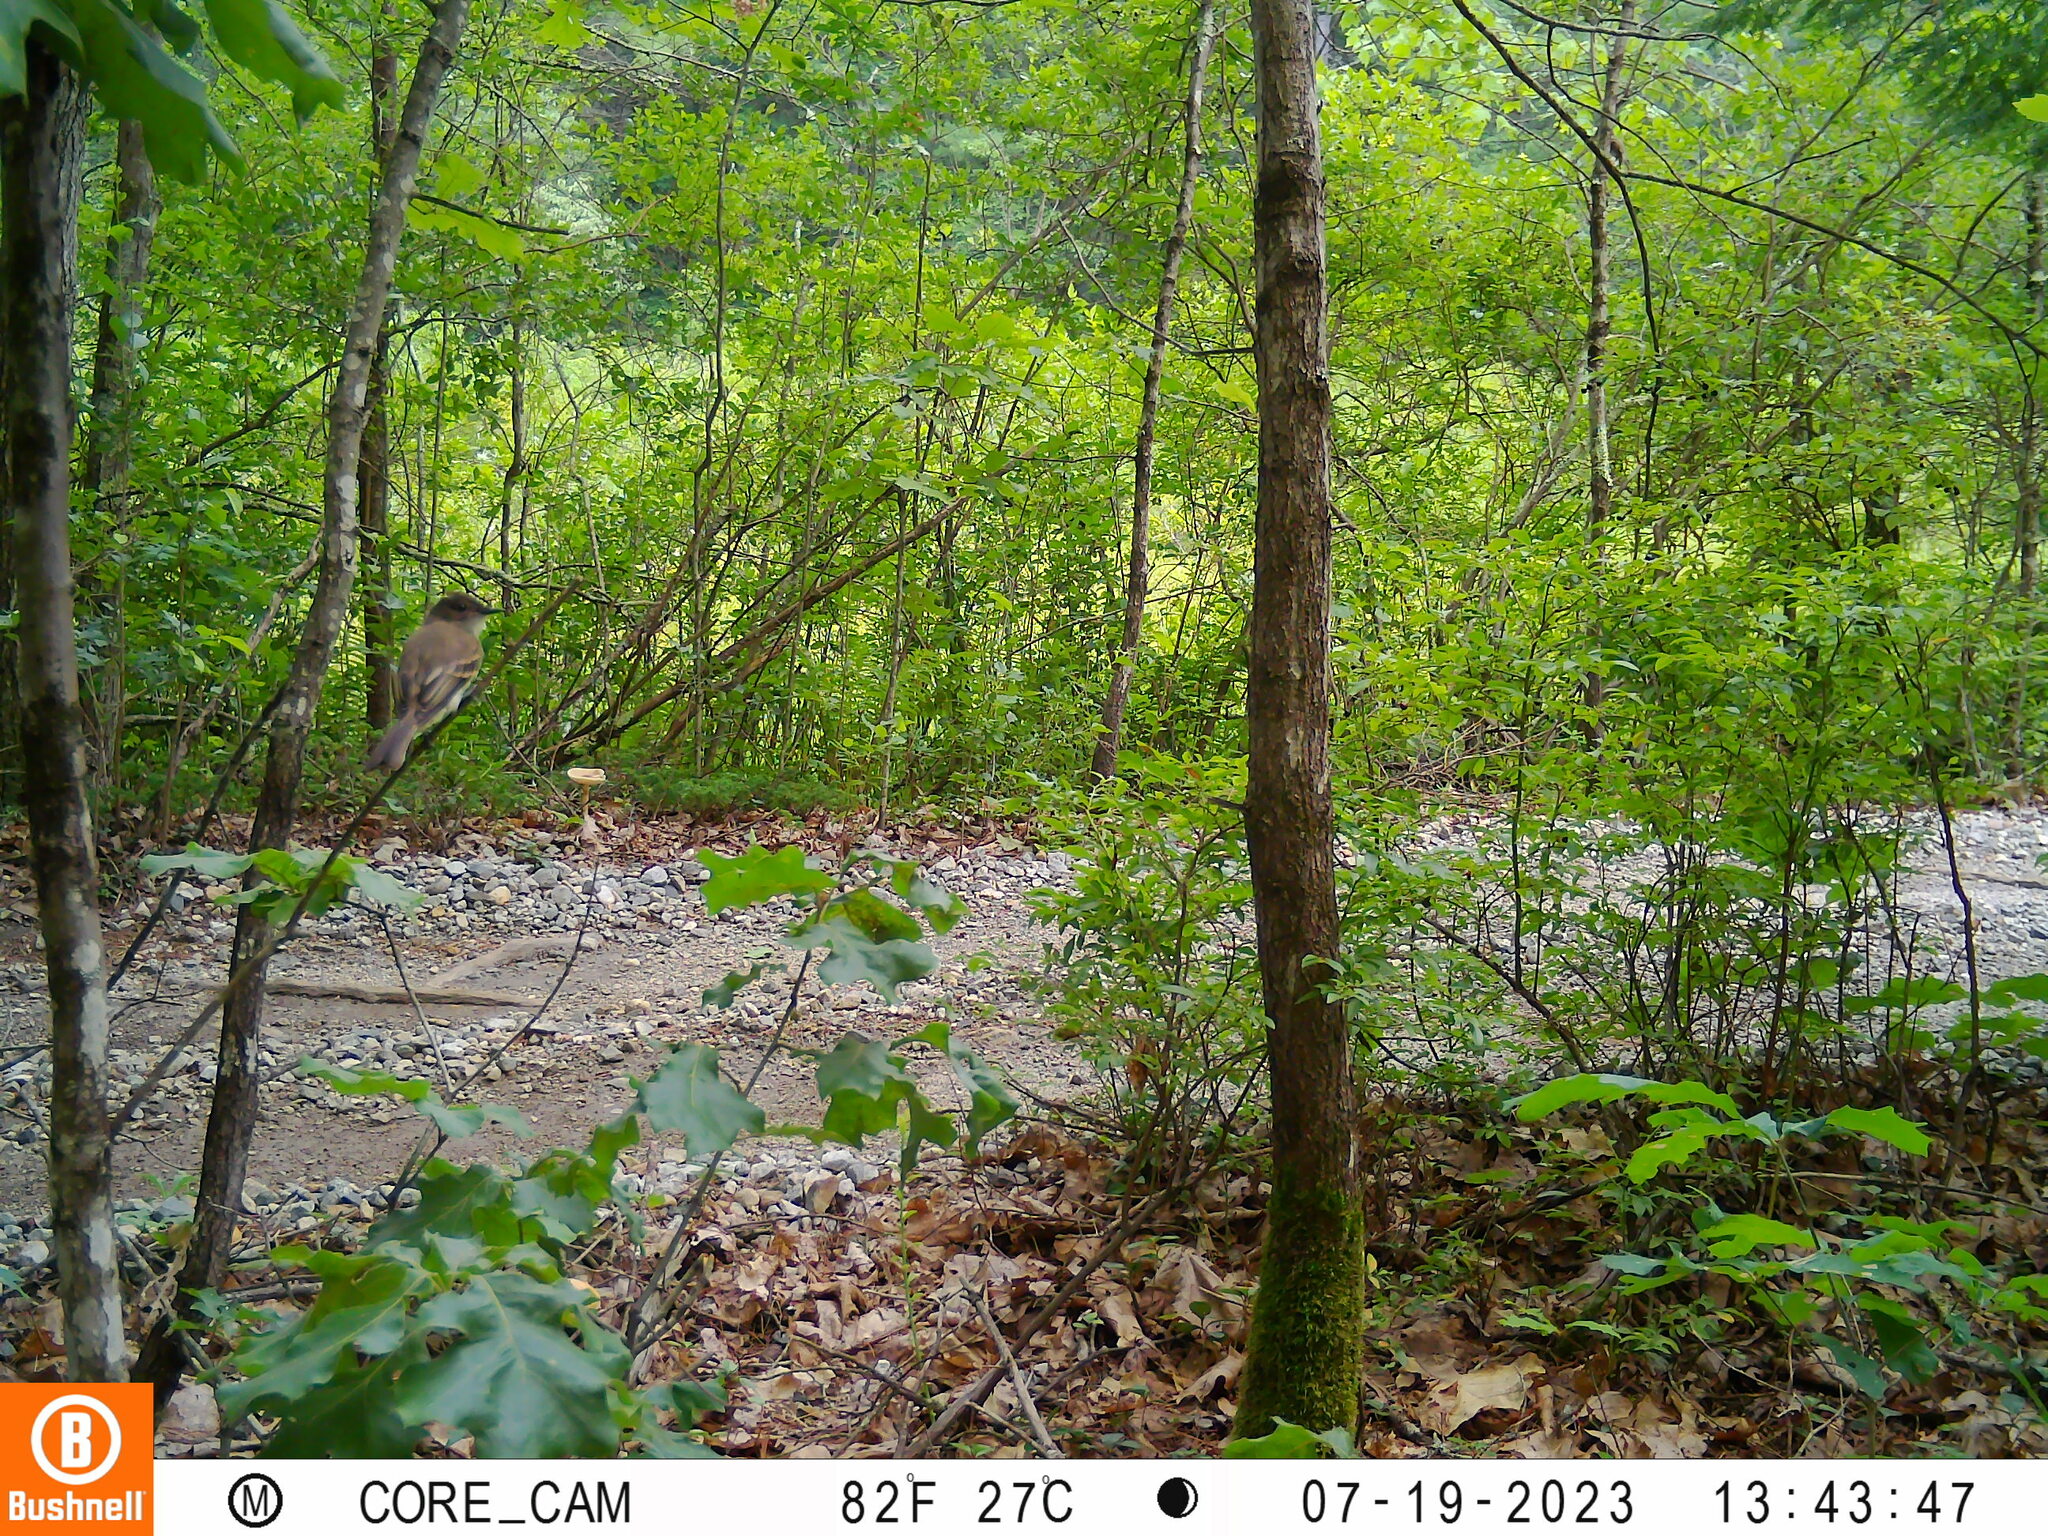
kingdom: Animalia
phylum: Chordata
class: Aves
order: Passeriformes
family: Tyrannidae
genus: Sayornis
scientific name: Sayornis phoebe
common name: Eastern phoebe
